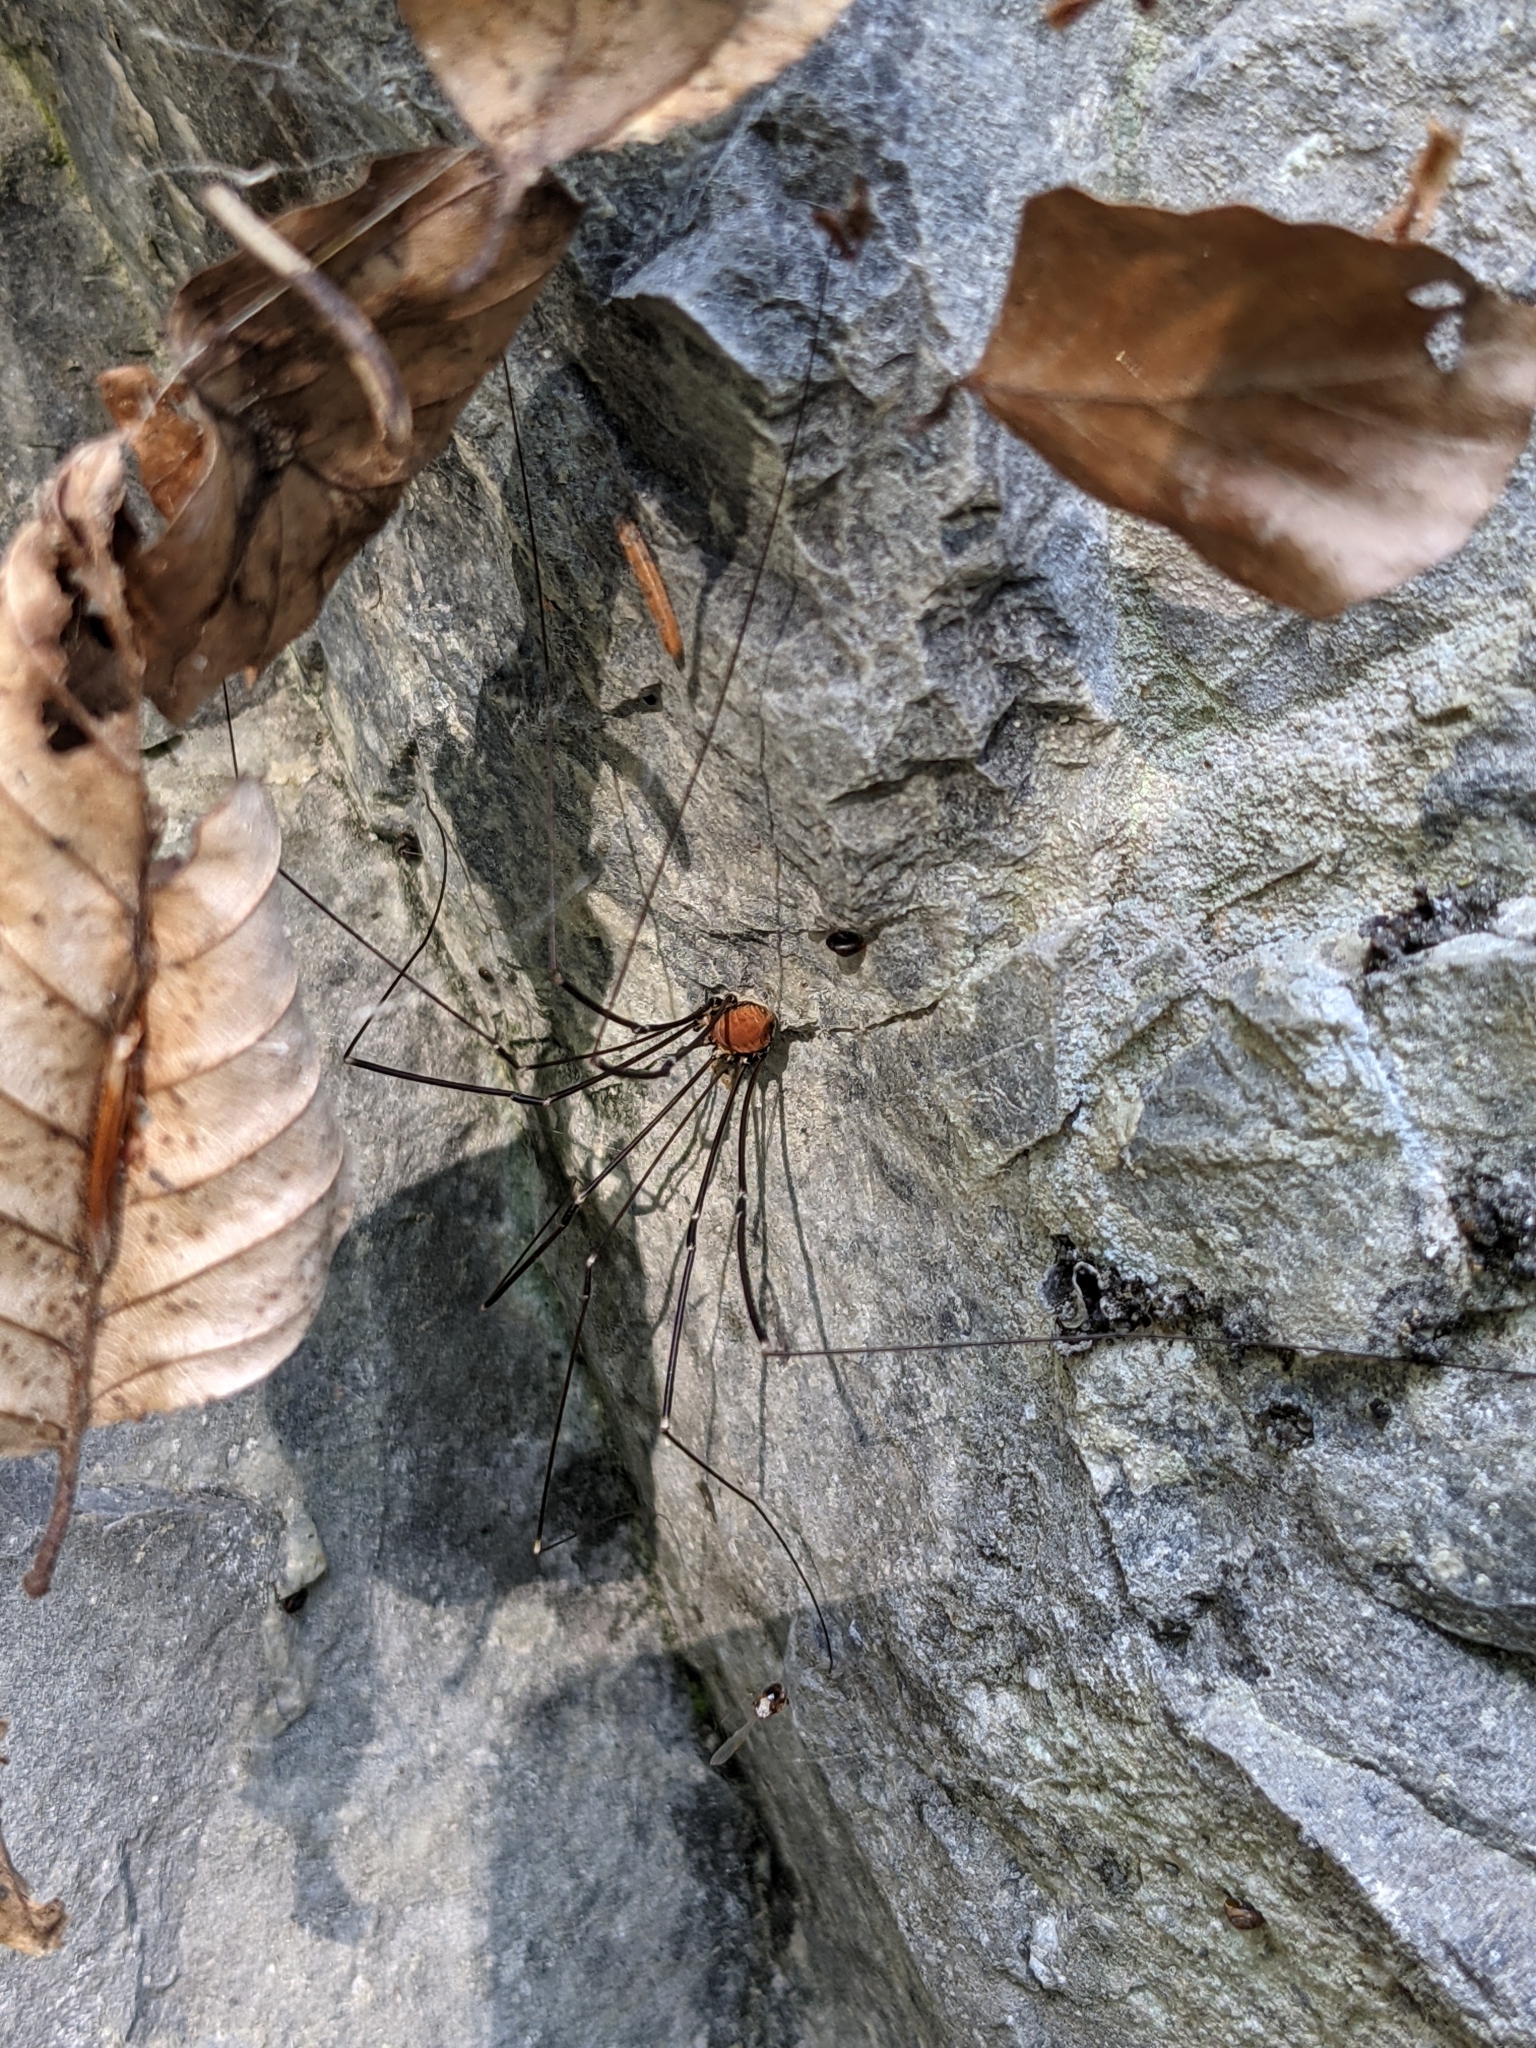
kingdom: Animalia
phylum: Arthropoda
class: Arachnida
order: Opiliones
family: Sclerosomatidae
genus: Leiobunum
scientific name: Leiobunum limbatum
